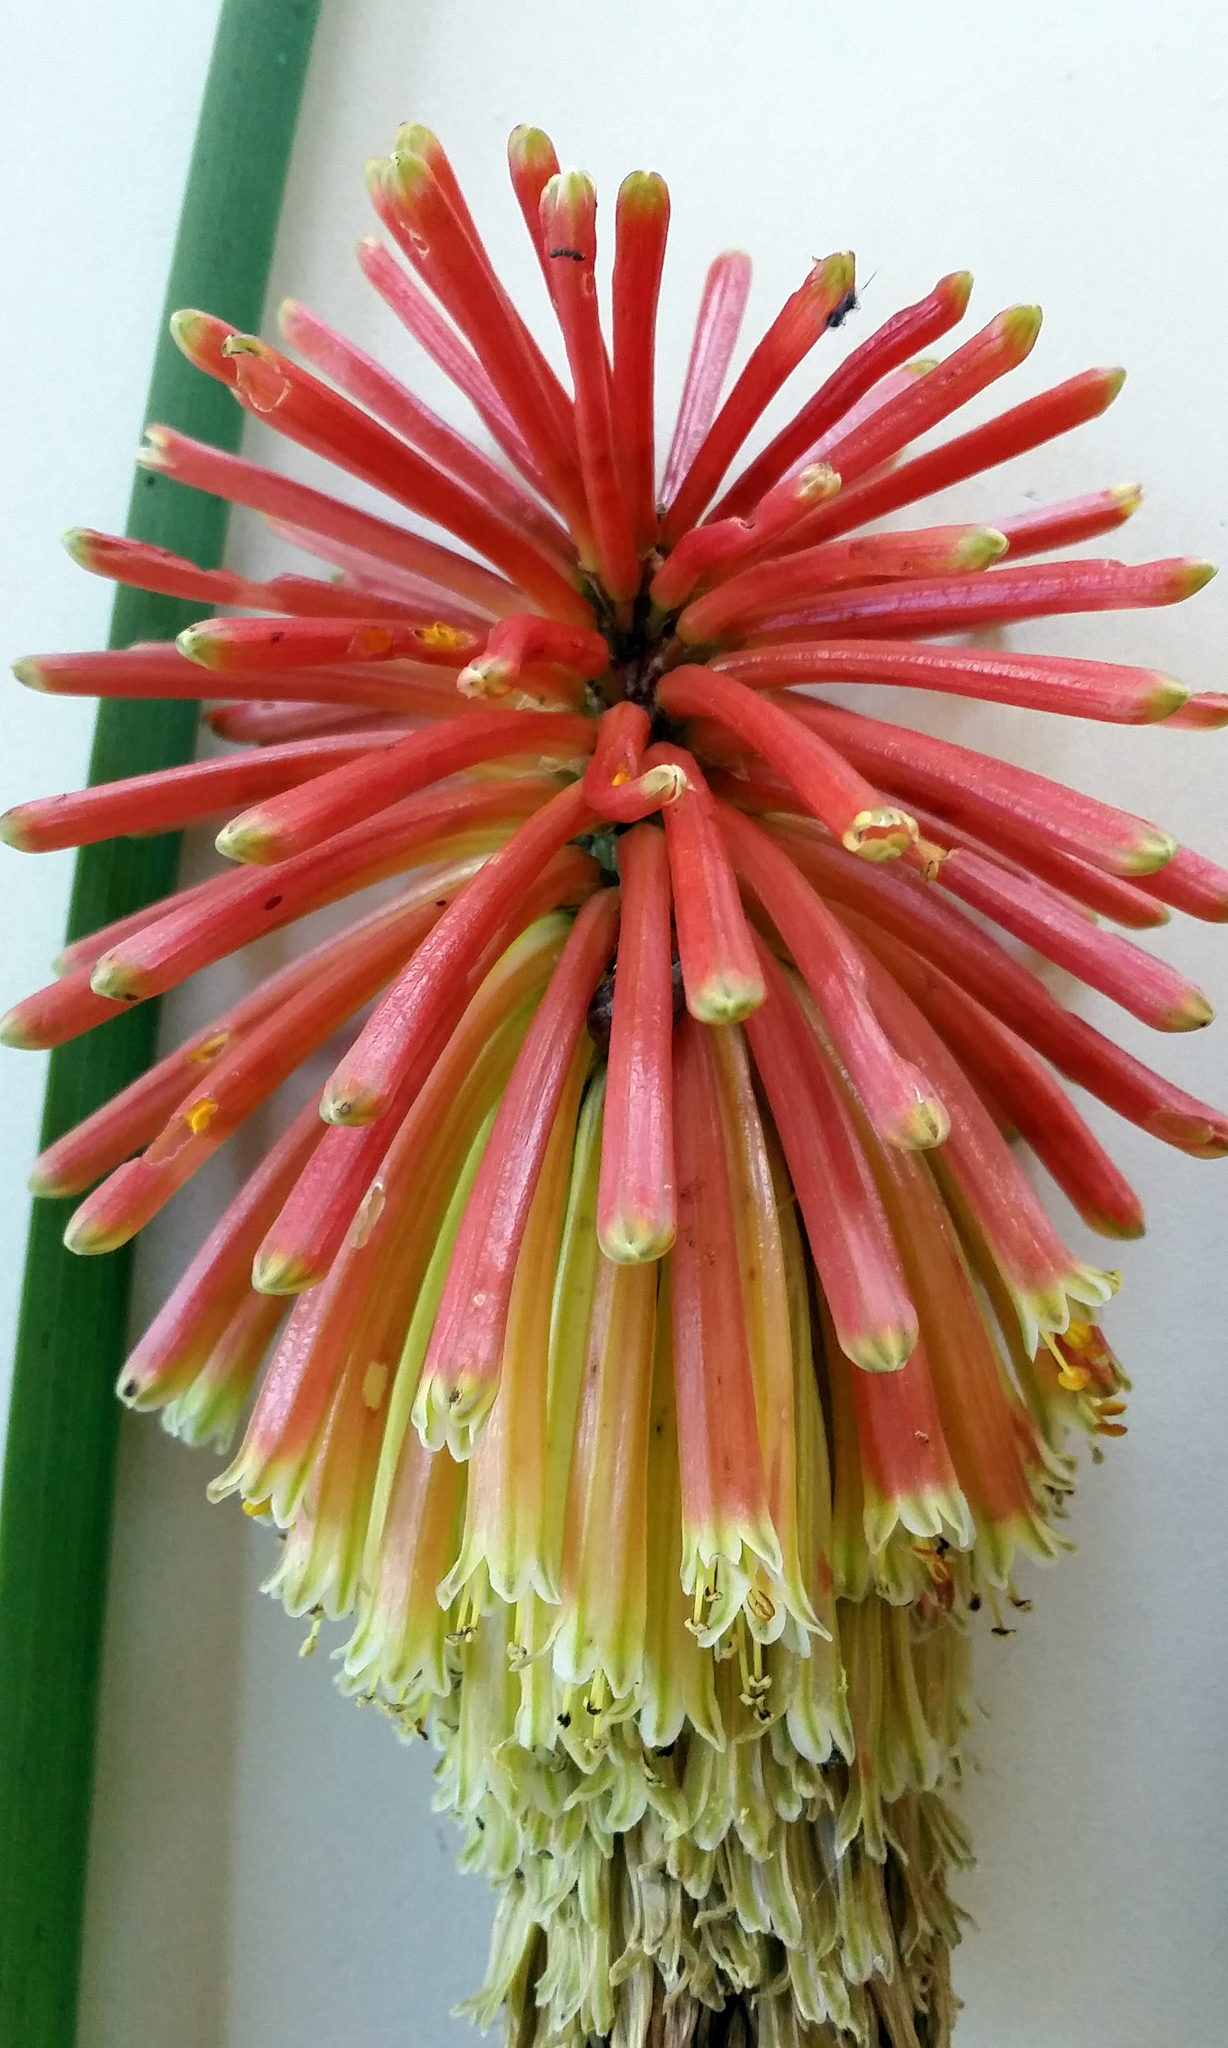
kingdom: Plantae
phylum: Tracheophyta
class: Liliopsida
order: Asparagales
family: Asphodelaceae
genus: Kniphofia
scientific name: Kniphofia uvaria
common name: Red-hot-poker
